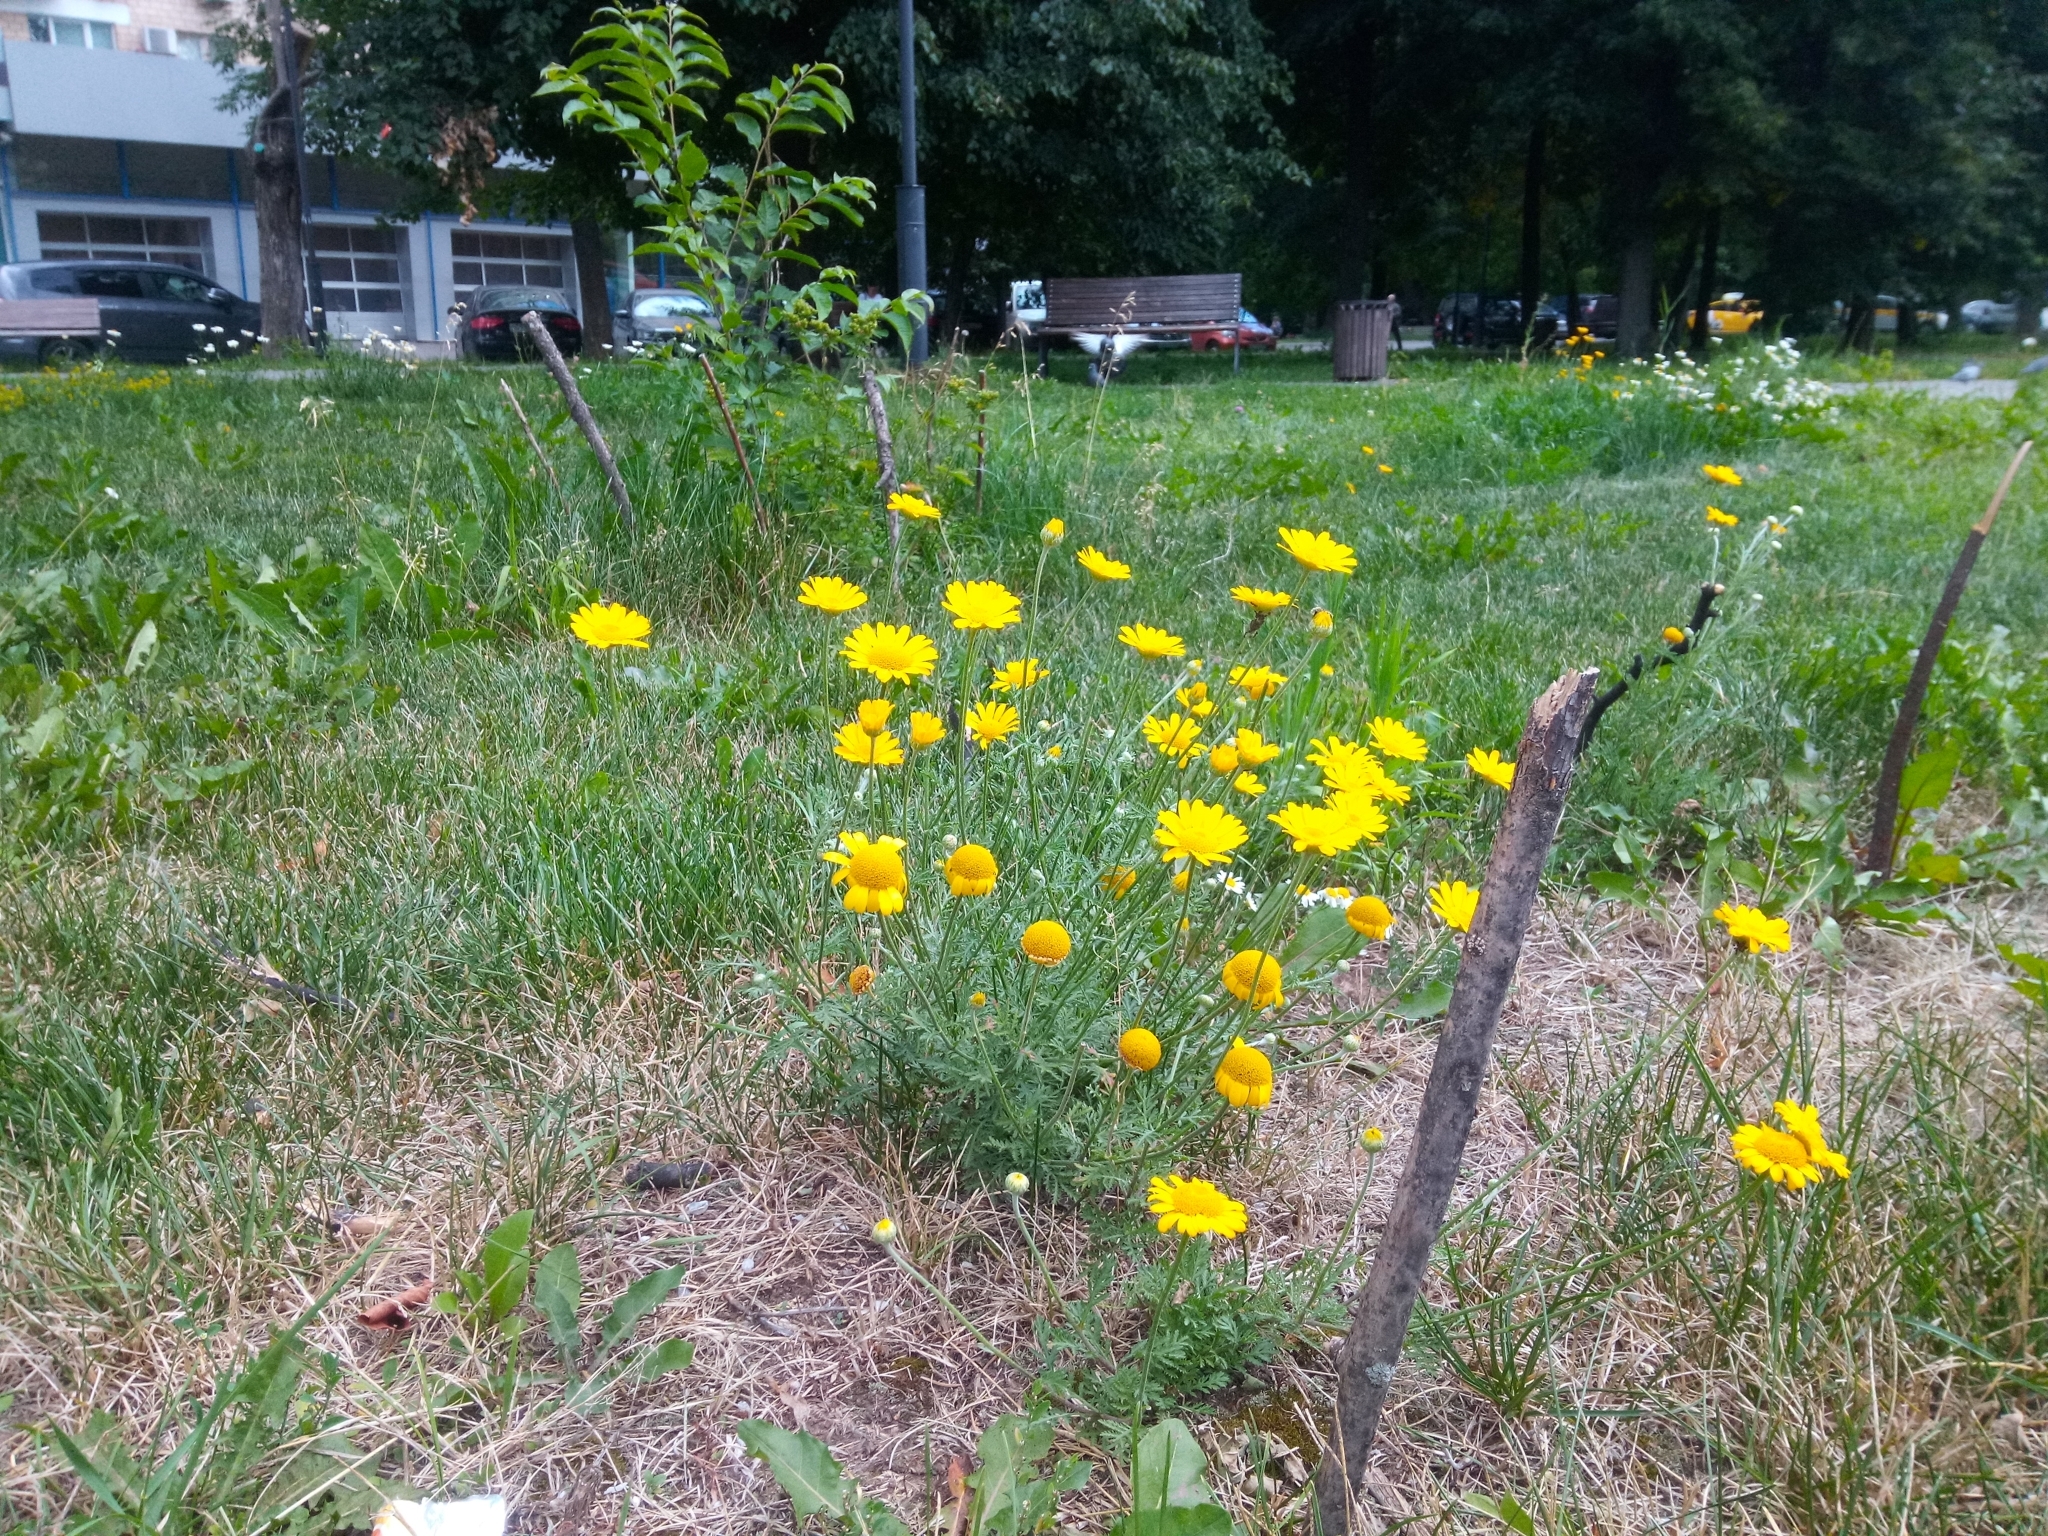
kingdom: Plantae
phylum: Tracheophyta
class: Magnoliopsida
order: Asterales
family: Asteraceae
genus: Cota
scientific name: Cota tinctoria
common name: Golden chamomile
